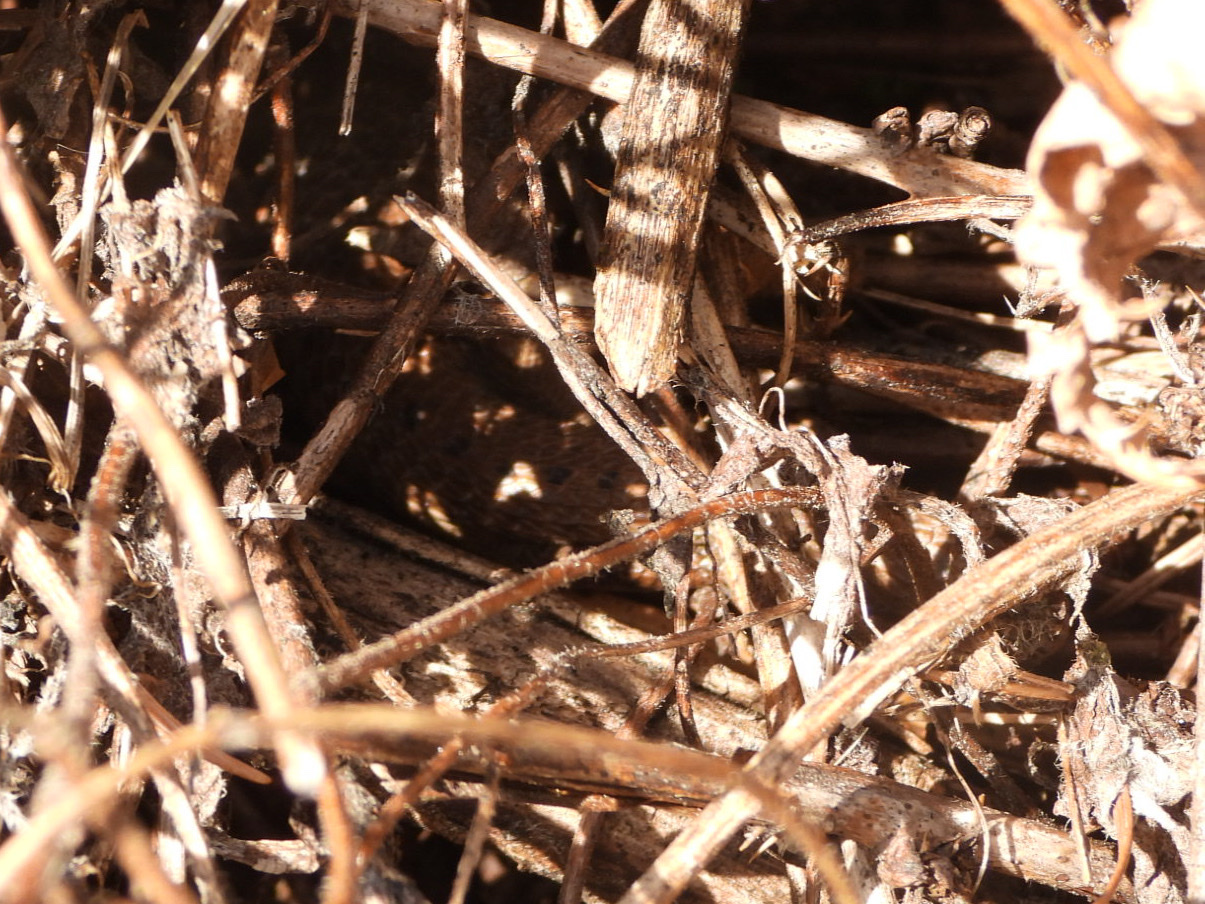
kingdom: Animalia
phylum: Chordata
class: Squamata
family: Anguidae
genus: Elgaria
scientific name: Elgaria coerulea
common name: Northern alligator lizard
